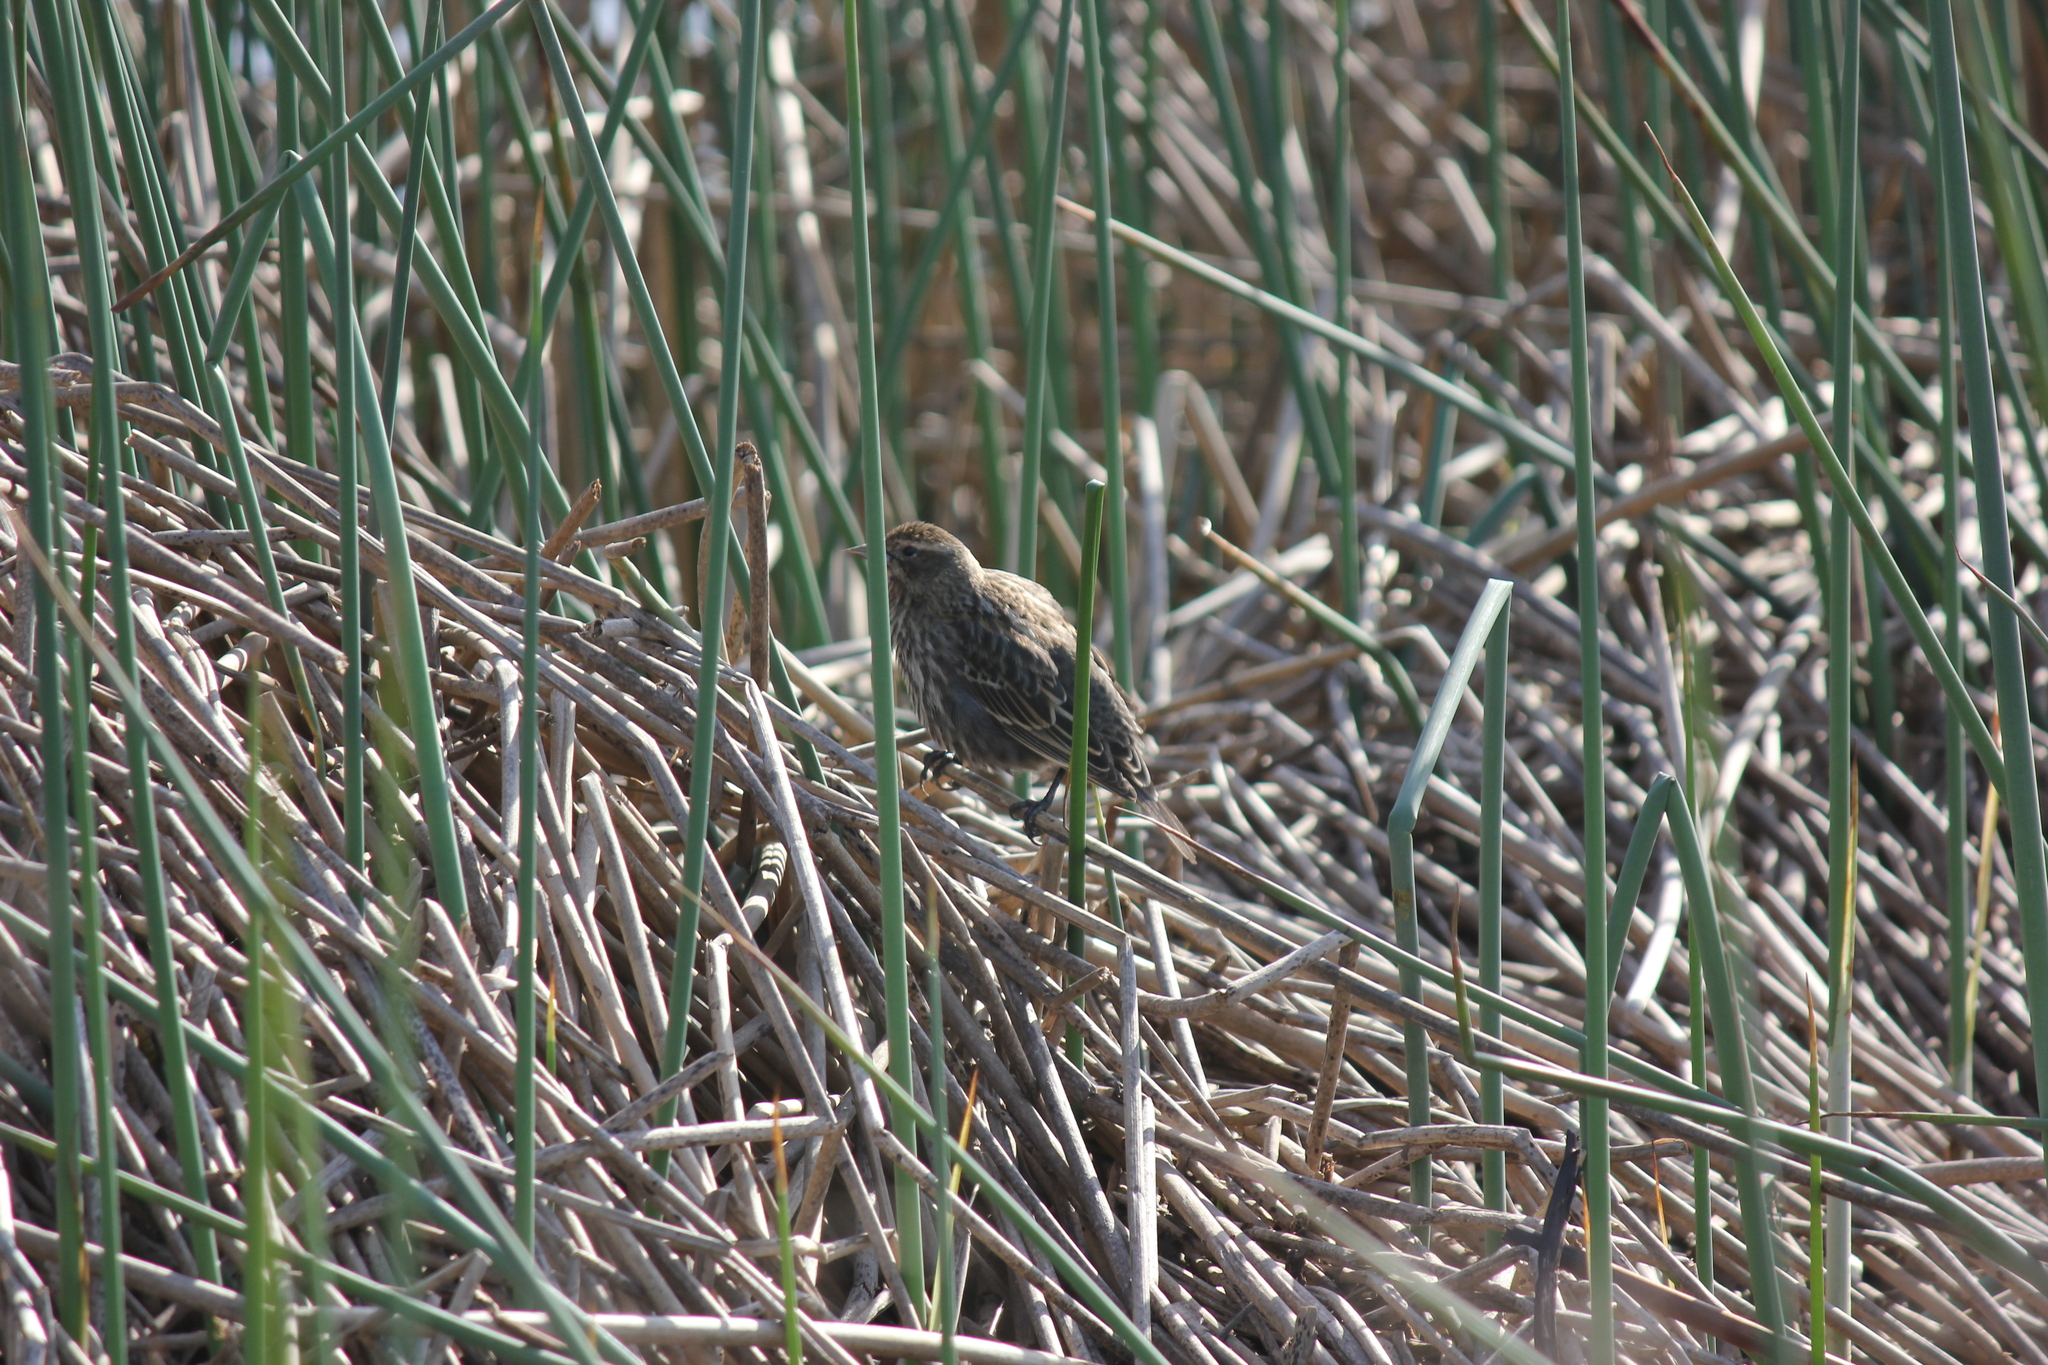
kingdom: Animalia
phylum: Chordata
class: Aves
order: Passeriformes
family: Icteridae
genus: Agelaius
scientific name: Agelaius phoeniceus
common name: Red-winged blackbird
